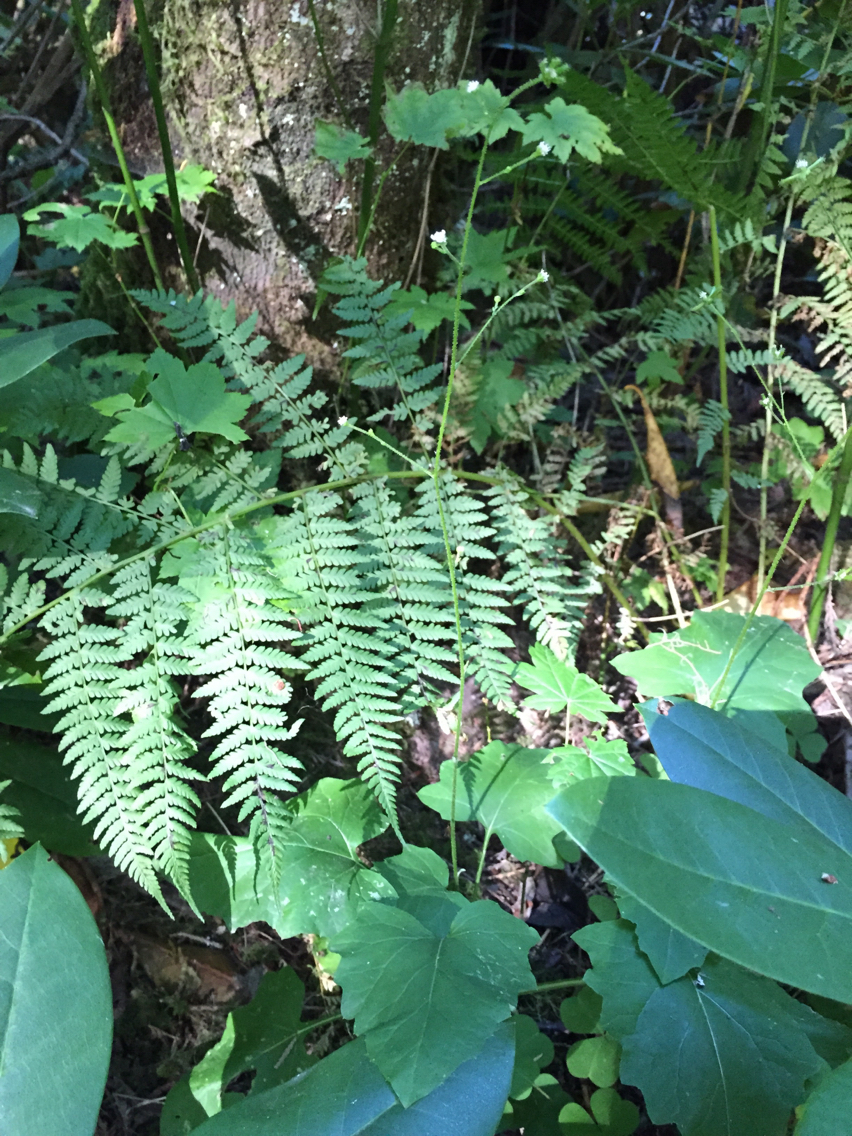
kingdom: Plantae
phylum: Tracheophyta
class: Magnoliopsida
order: Asterales
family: Asteraceae
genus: Adenocaulon
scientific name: Adenocaulon bicolor
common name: Trailplant
